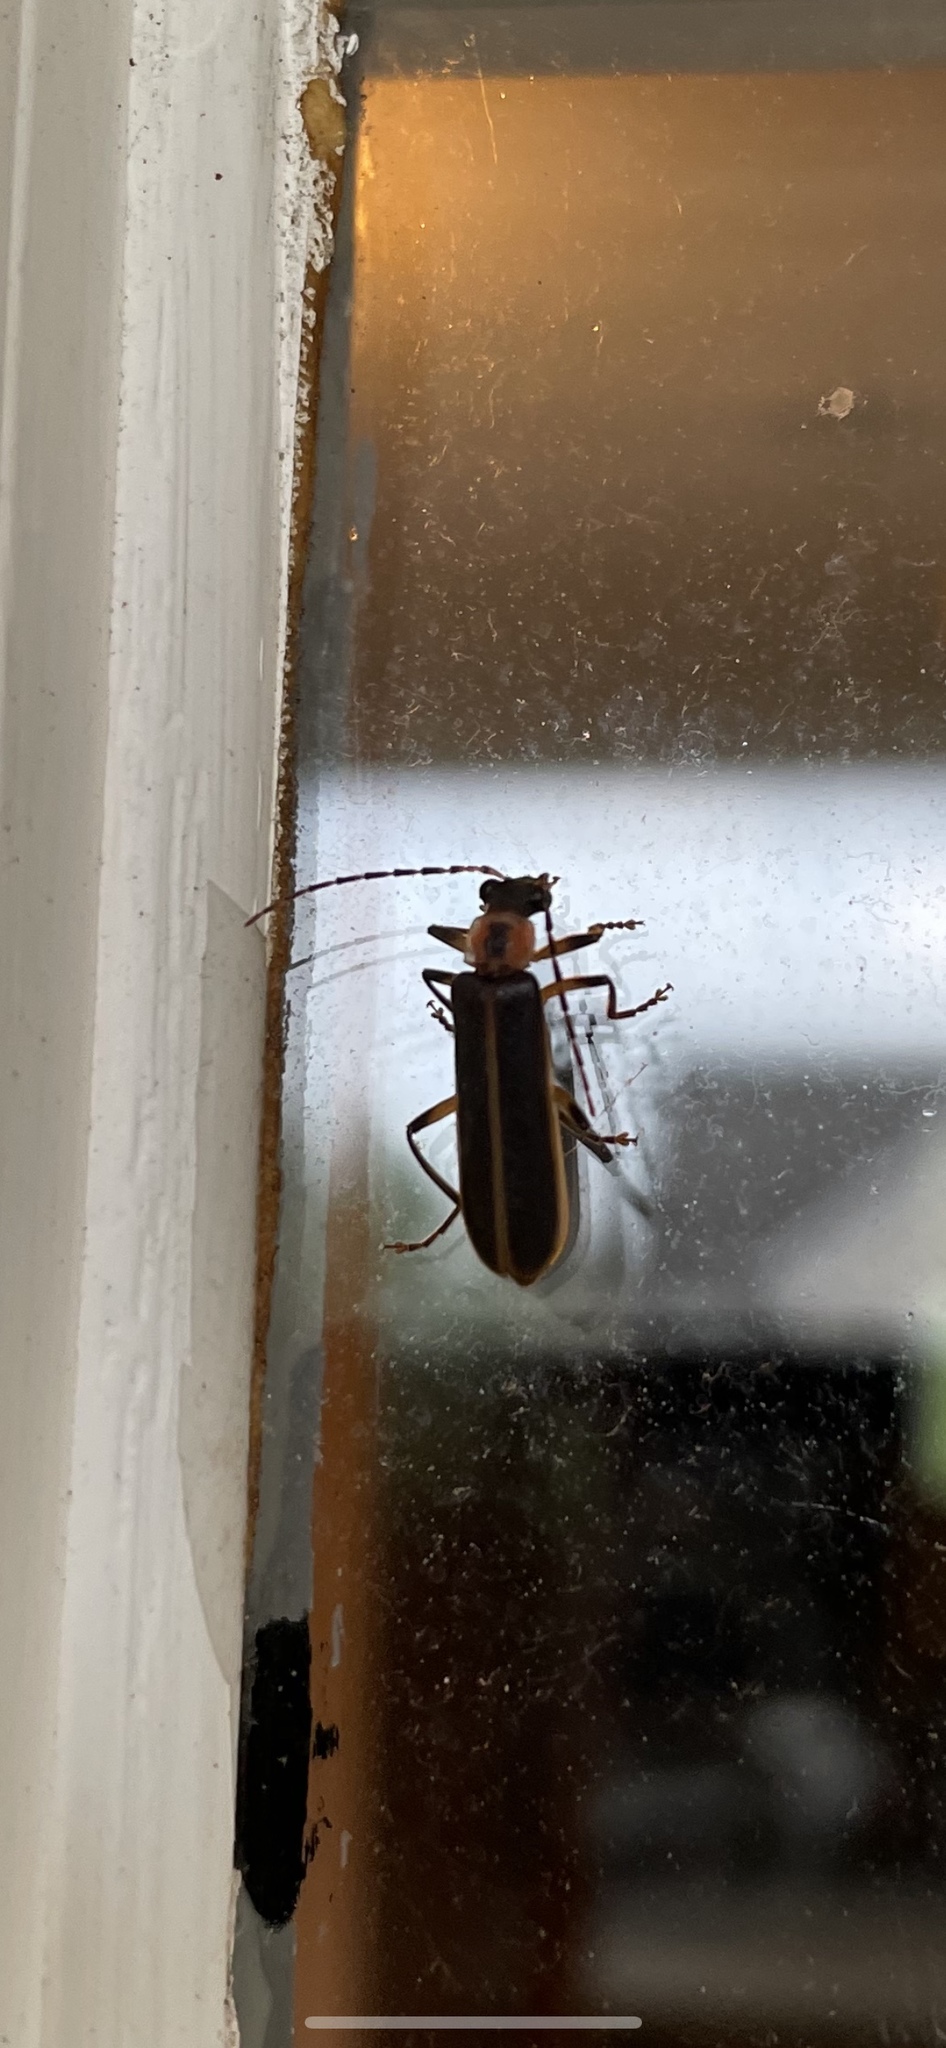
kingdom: Animalia
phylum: Arthropoda
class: Insecta
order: Coleoptera
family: Cantharidae
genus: Podabrus
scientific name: Podabrus basilaris
